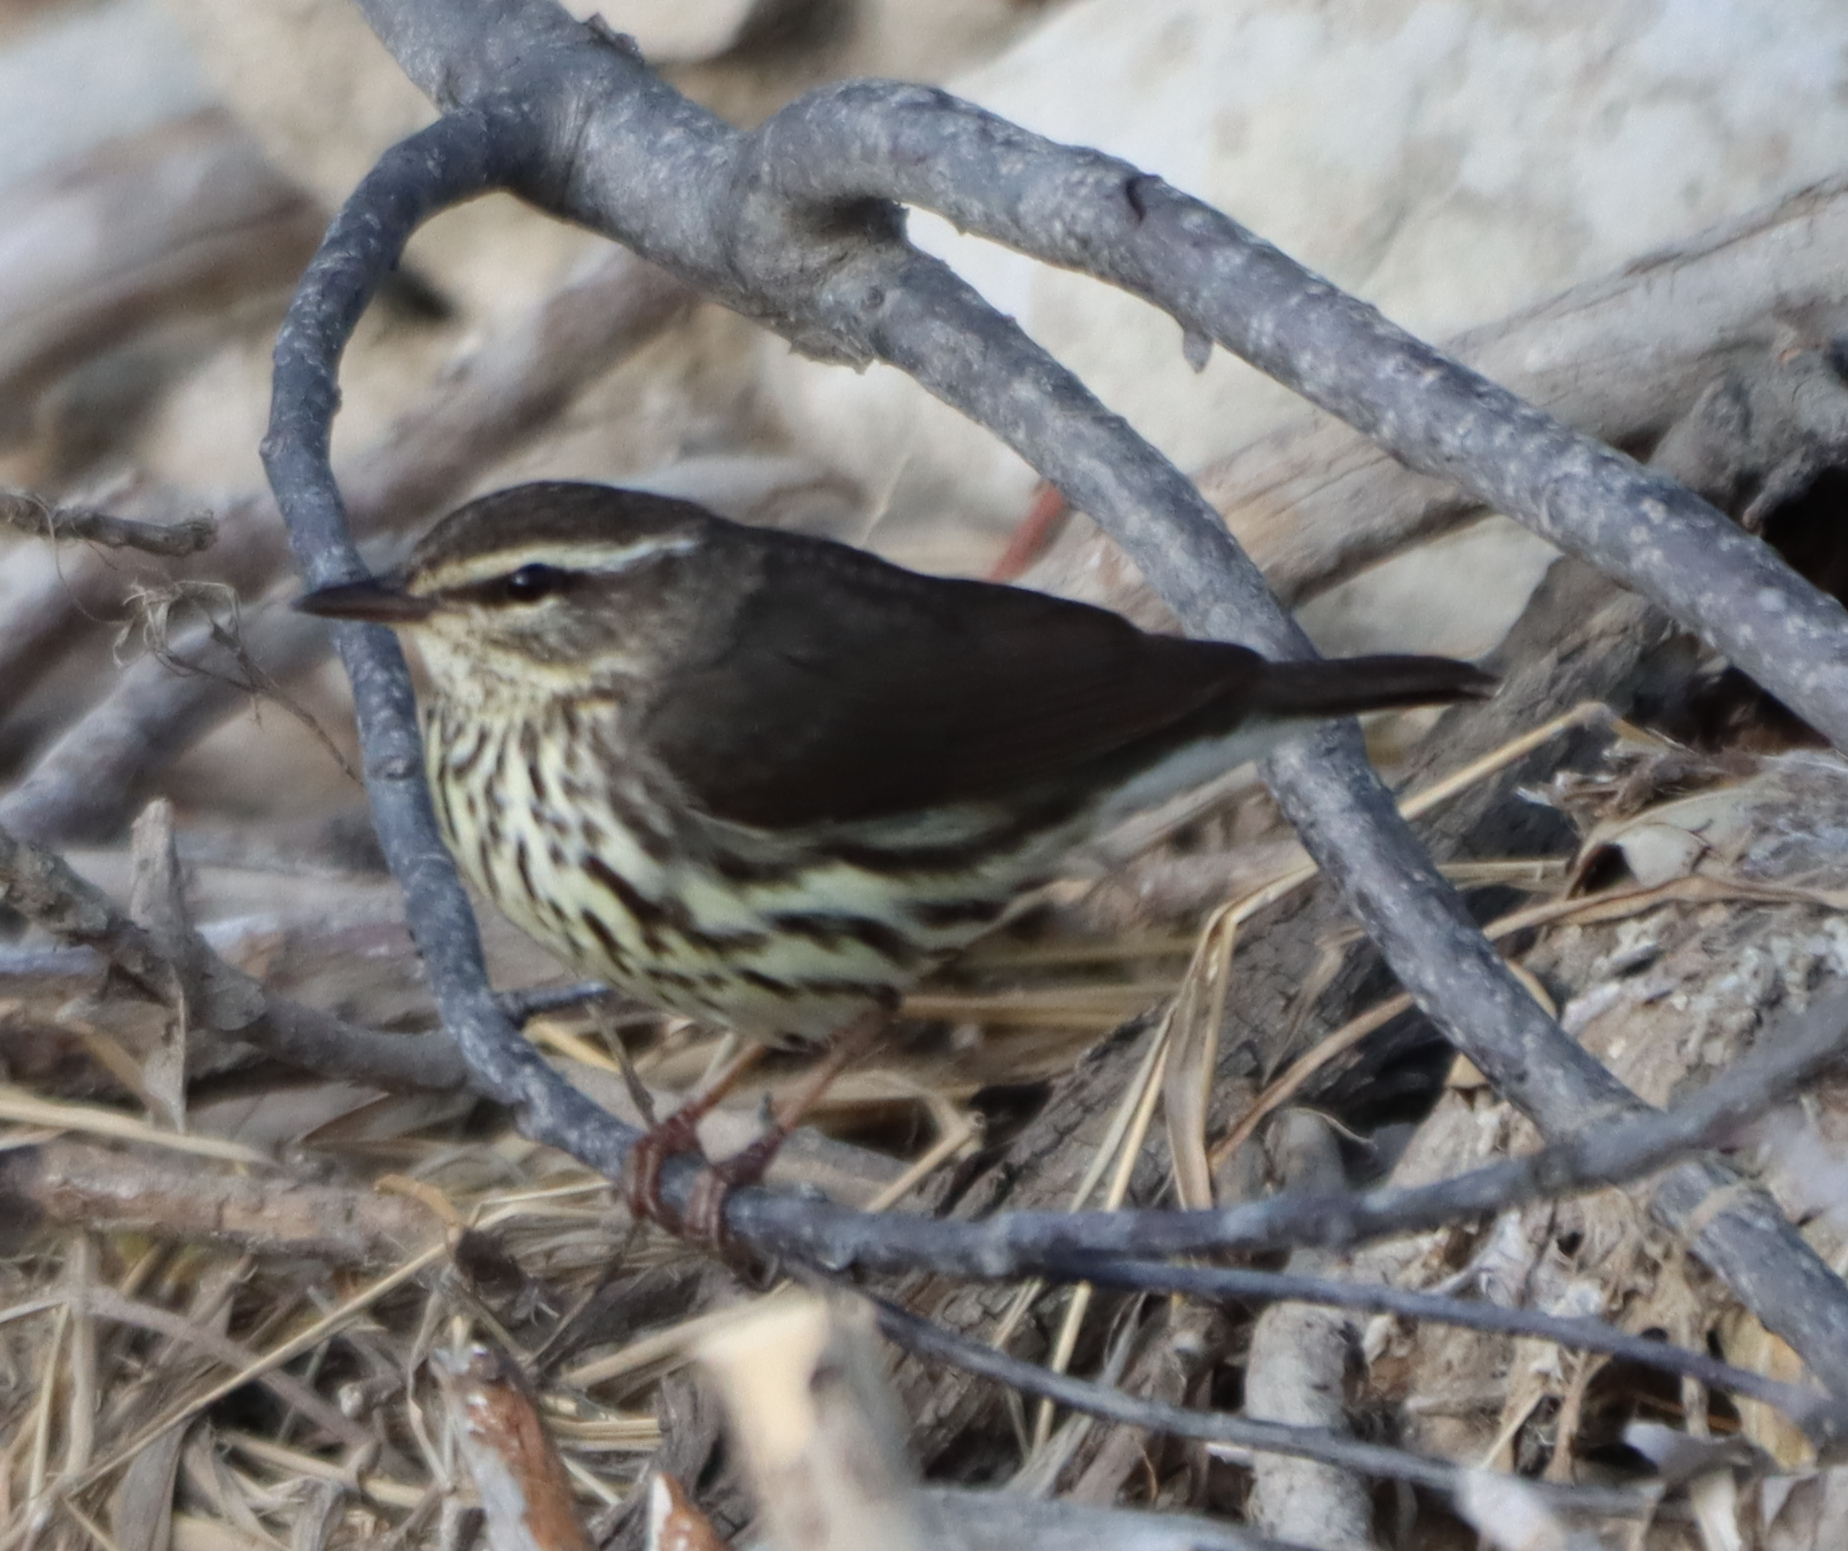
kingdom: Animalia
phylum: Chordata
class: Aves
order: Passeriformes
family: Parulidae
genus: Parkesia
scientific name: Parkesia noveboracensis
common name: Northern waterthrush
